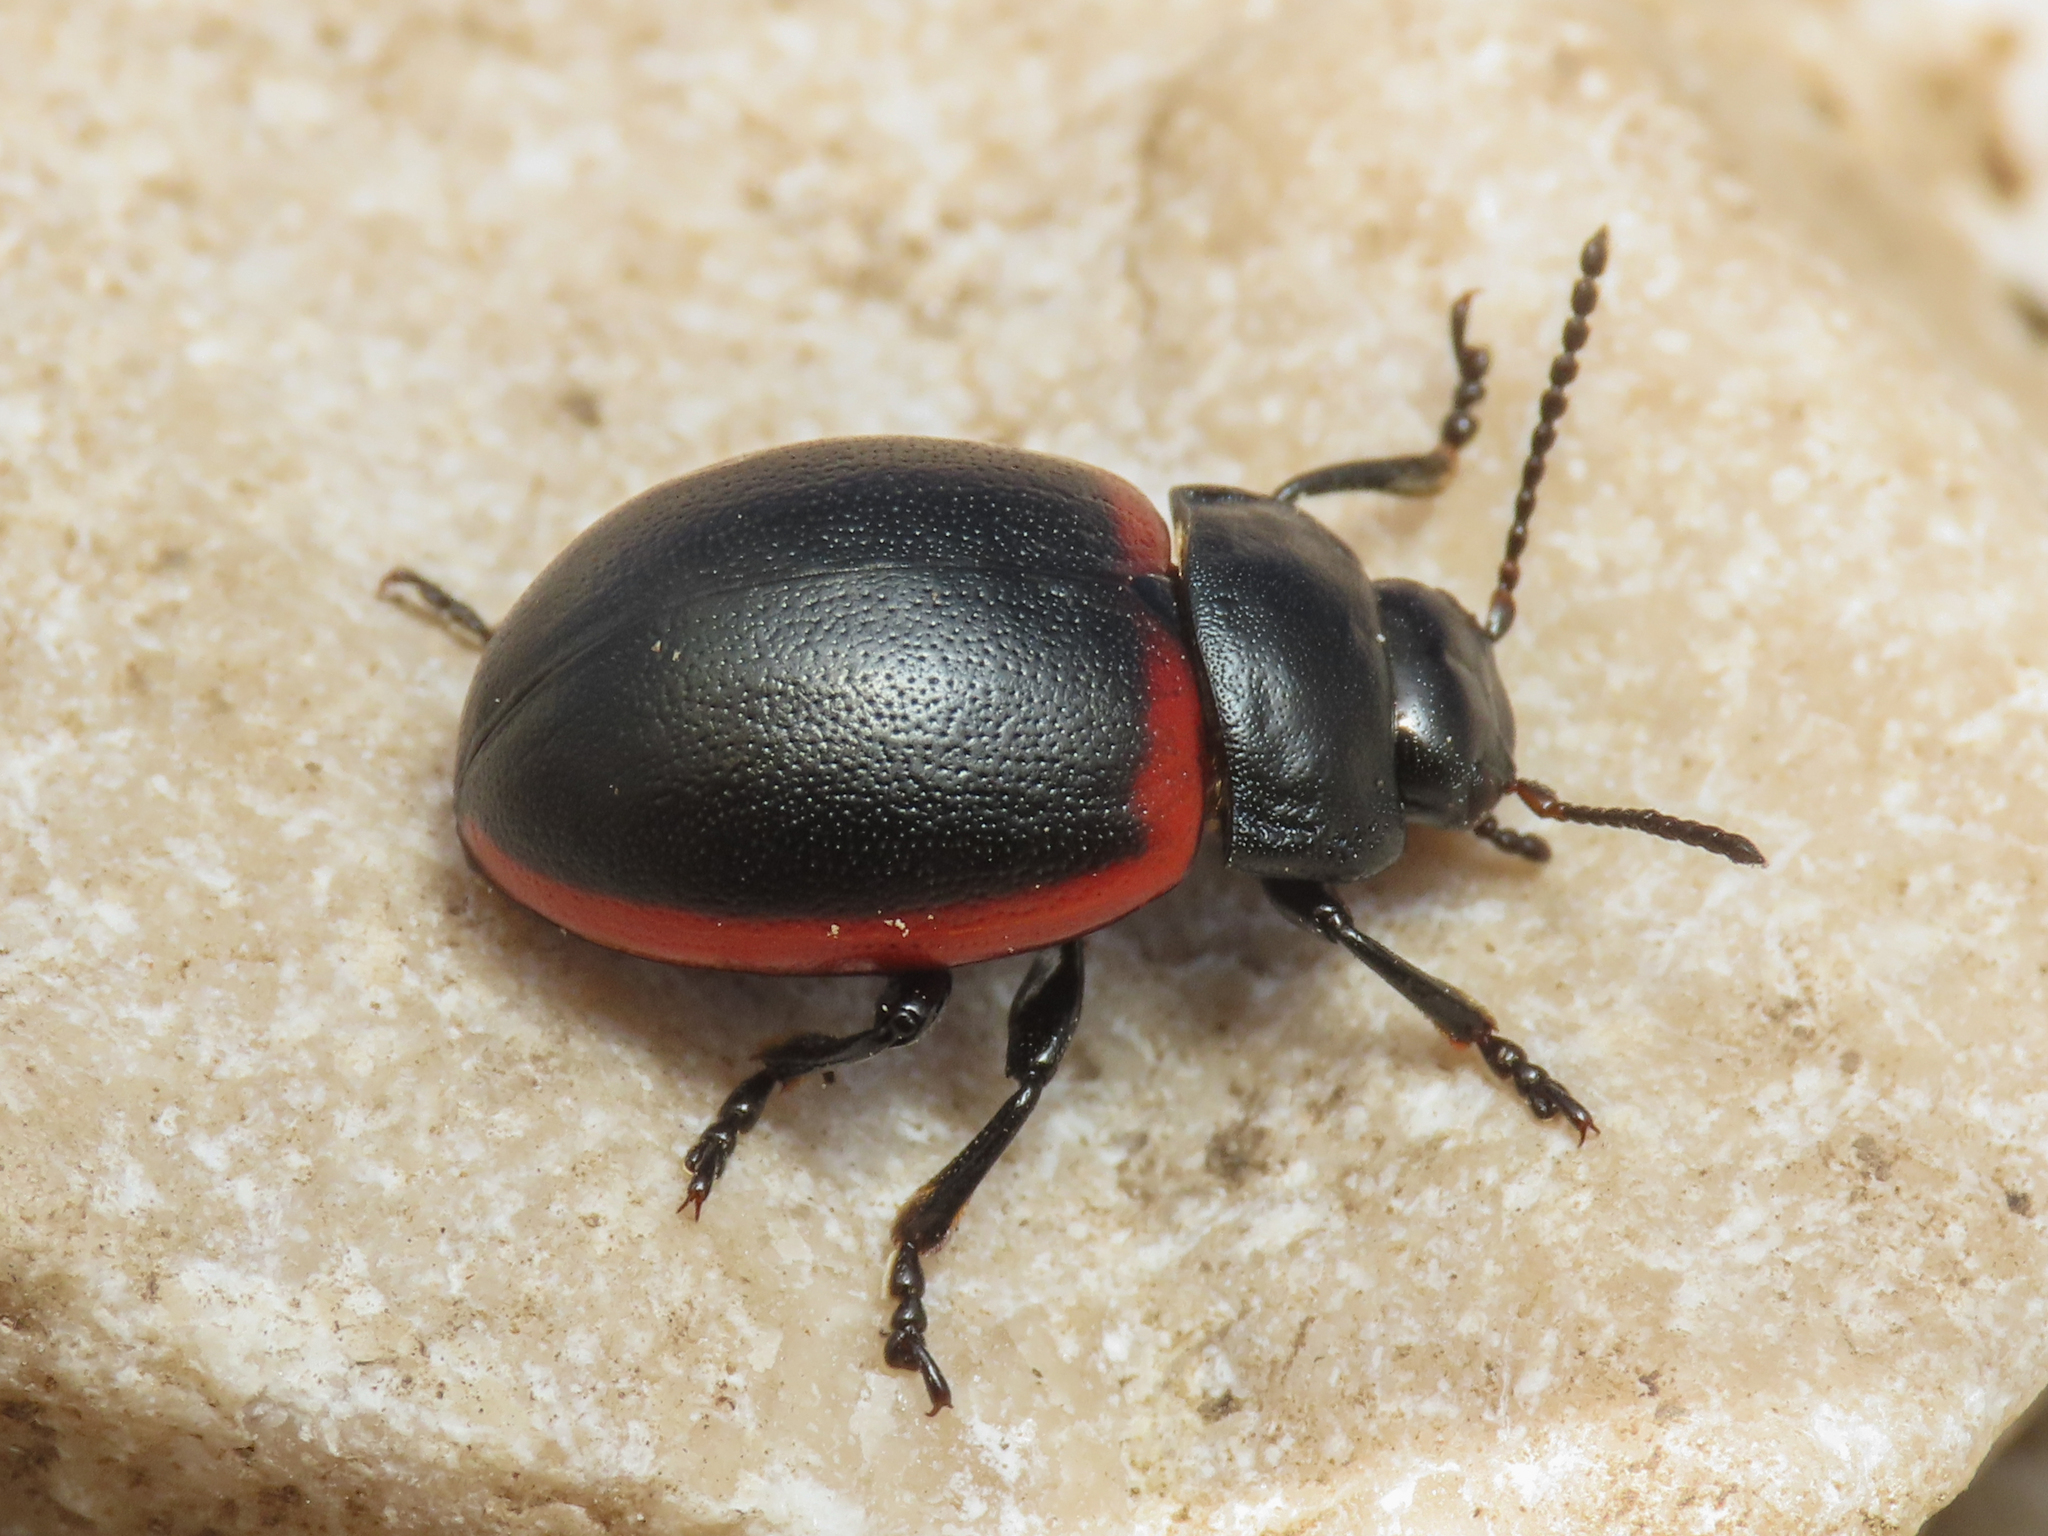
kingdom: Animalia
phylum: Arthropoda
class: Insecta
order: Coleoptera
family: Chrysomelidae
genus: Chrysolina
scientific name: Chrysolina limbata
